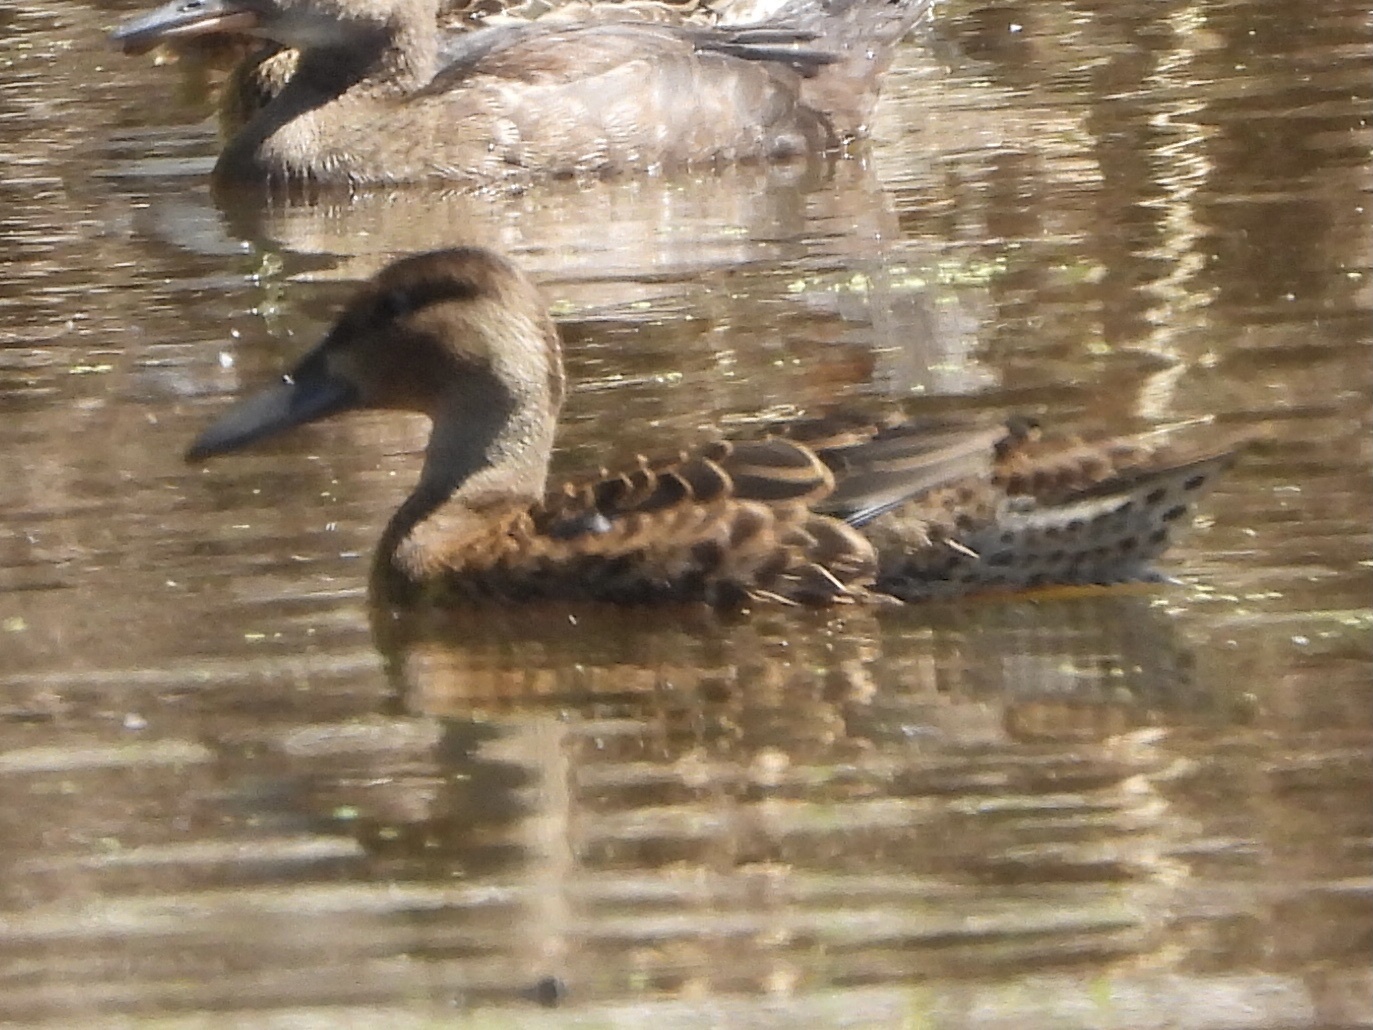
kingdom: Animalia
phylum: Chordata
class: Aves
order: Anseriformes
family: Anatidae
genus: Spatula
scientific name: Spatula cyanoptera
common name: Cinnamon teal
